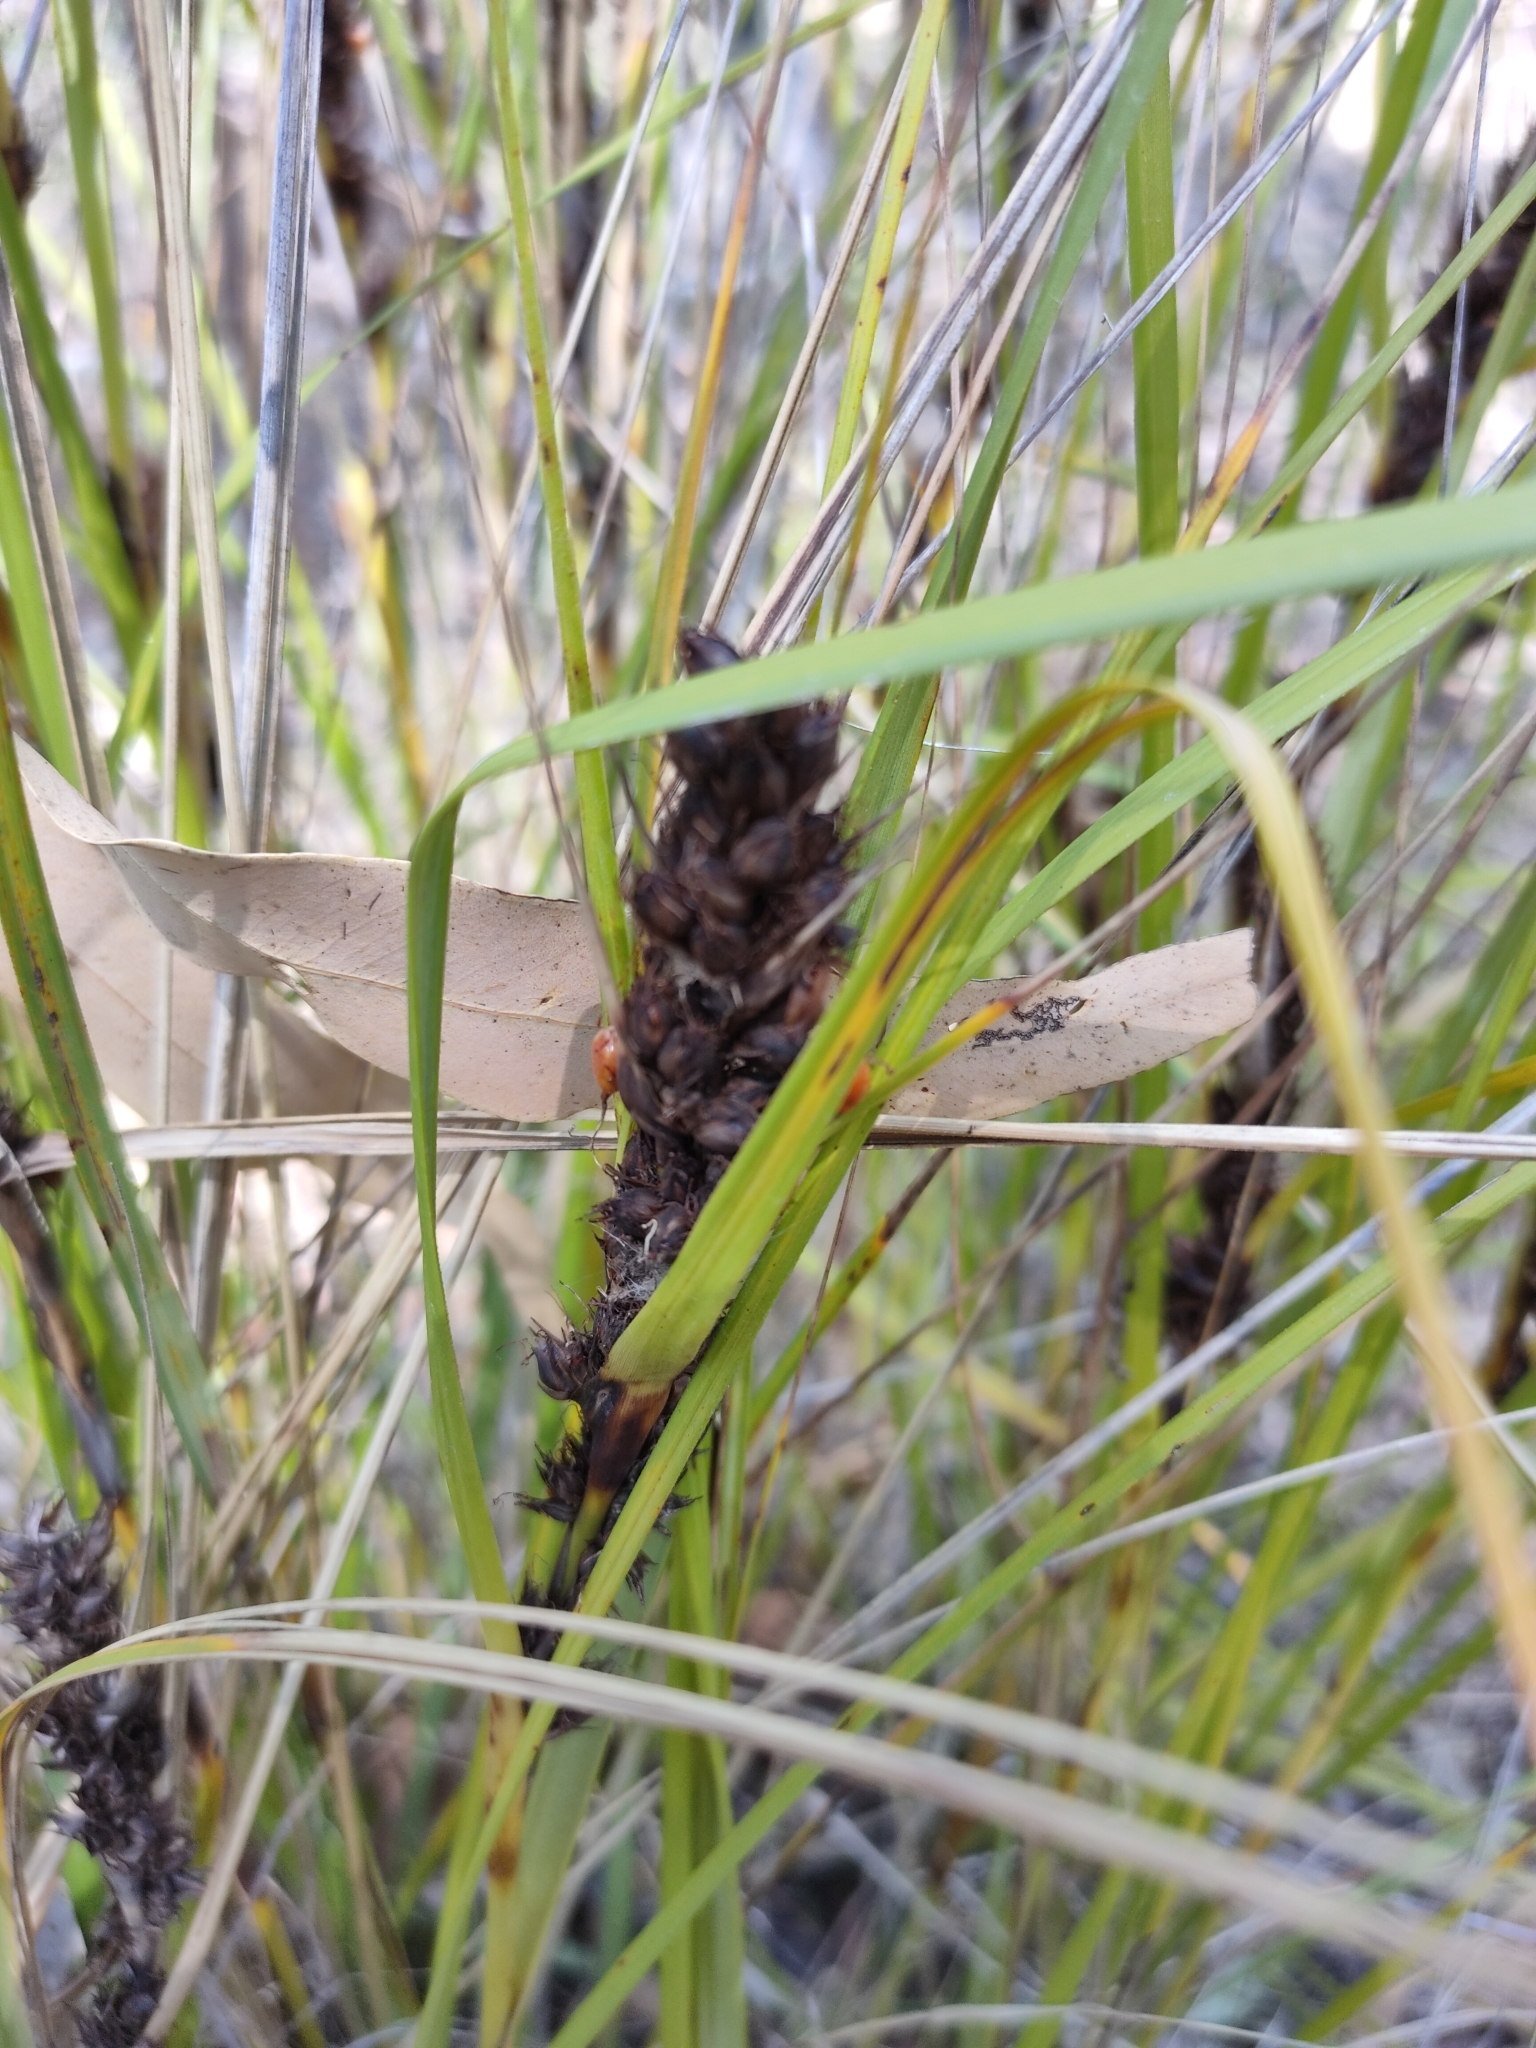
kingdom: Plantae
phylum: Tracheophyta
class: Liliopsida
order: Poales
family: Cyperaceae
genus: Gahnia
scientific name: Gahnia aspera
